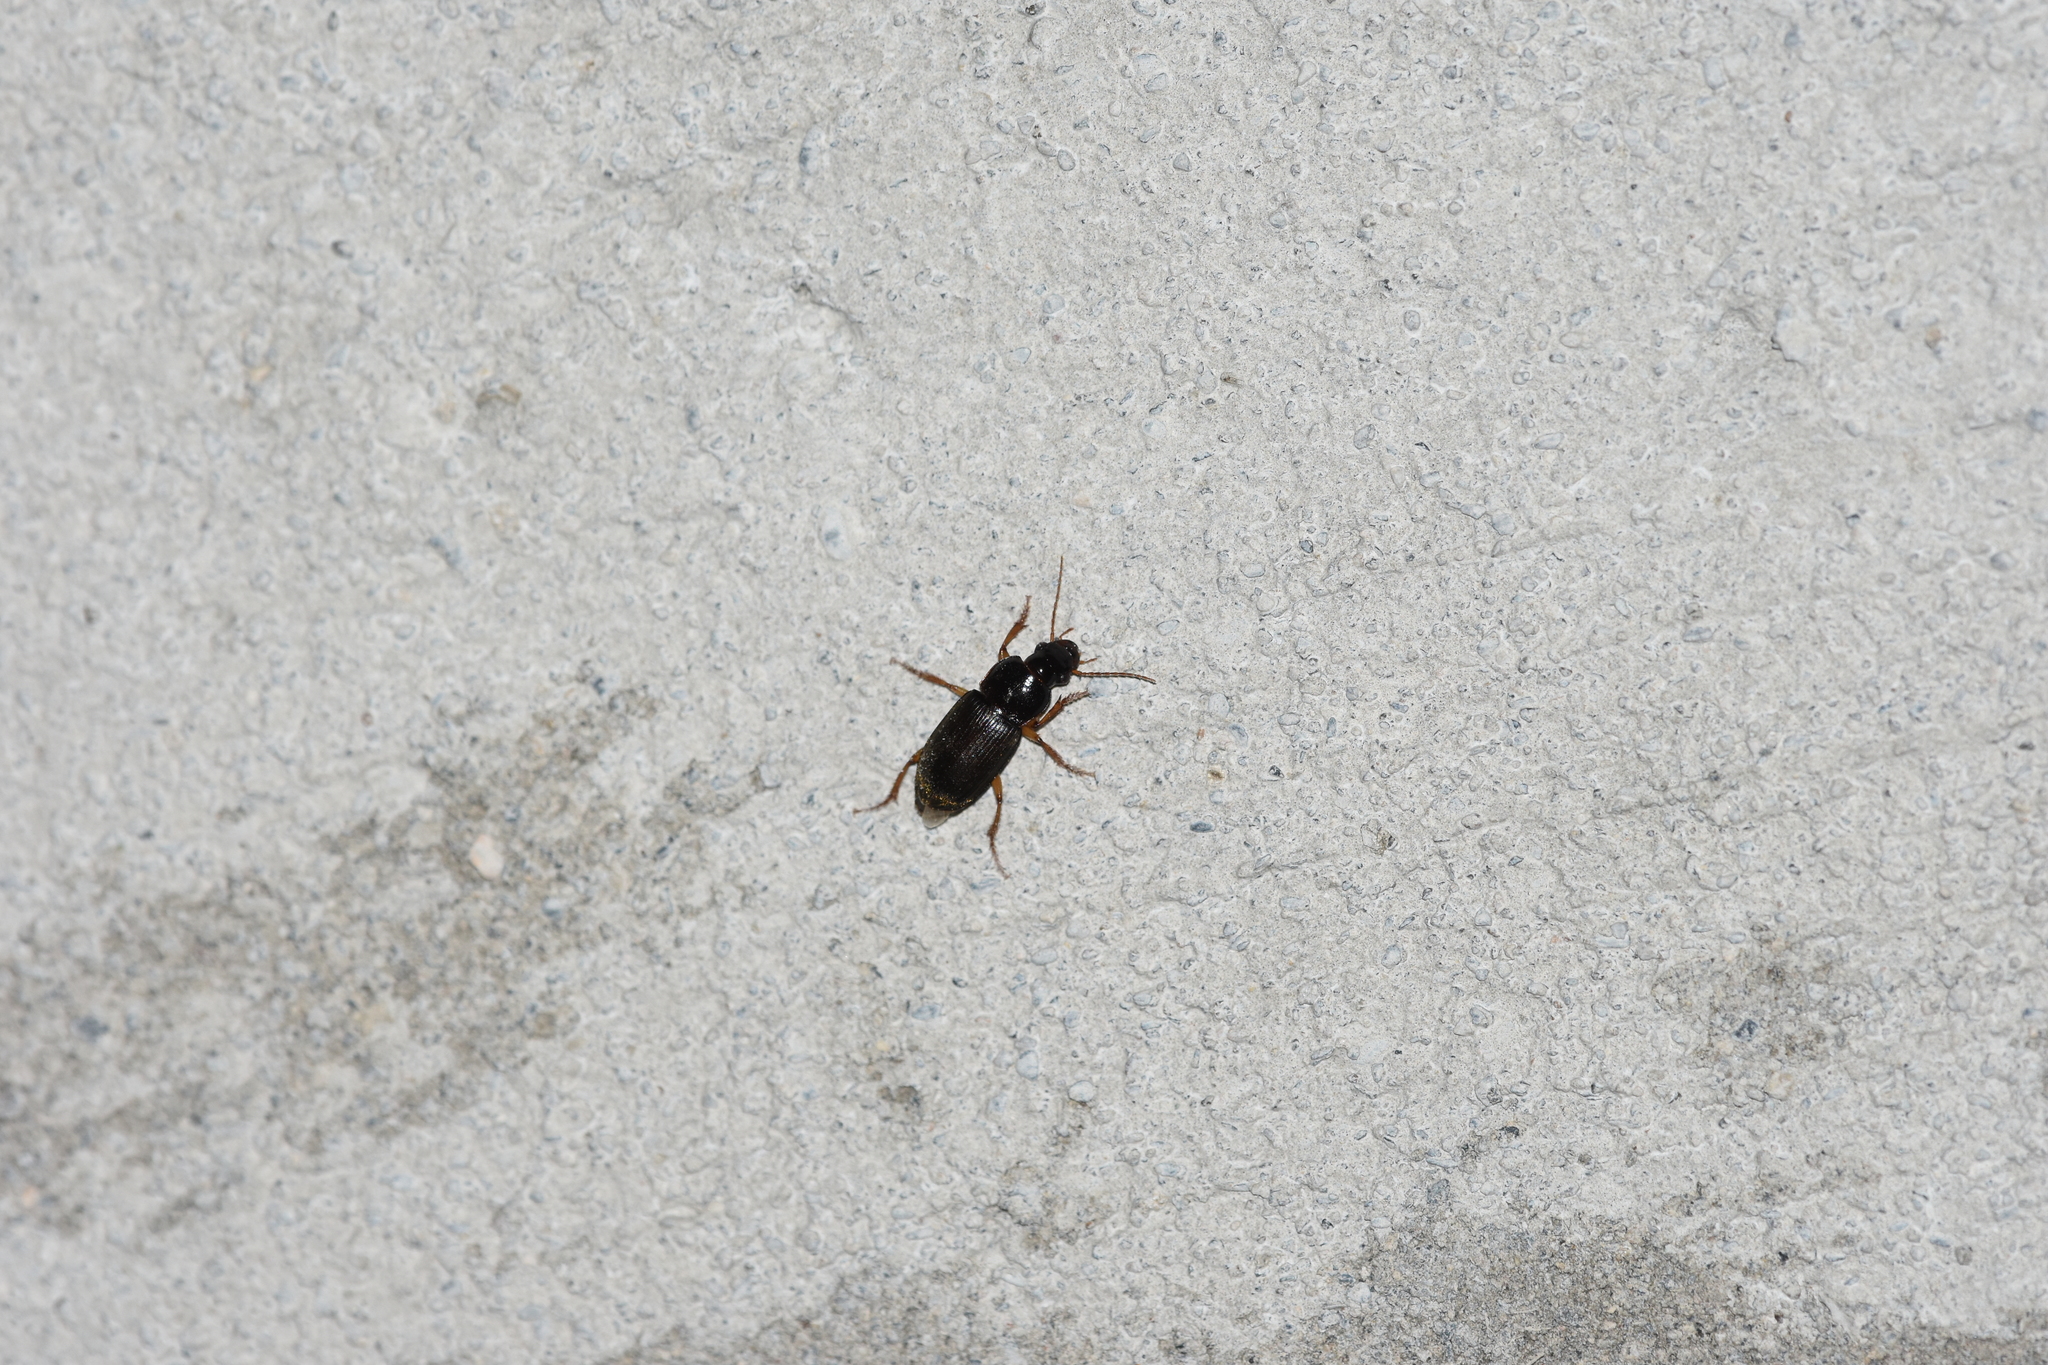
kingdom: Animalia
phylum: Arthropoda
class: Insecta
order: Coleoptera
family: Carabidae
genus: Harpalus
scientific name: Harpalus griseus
